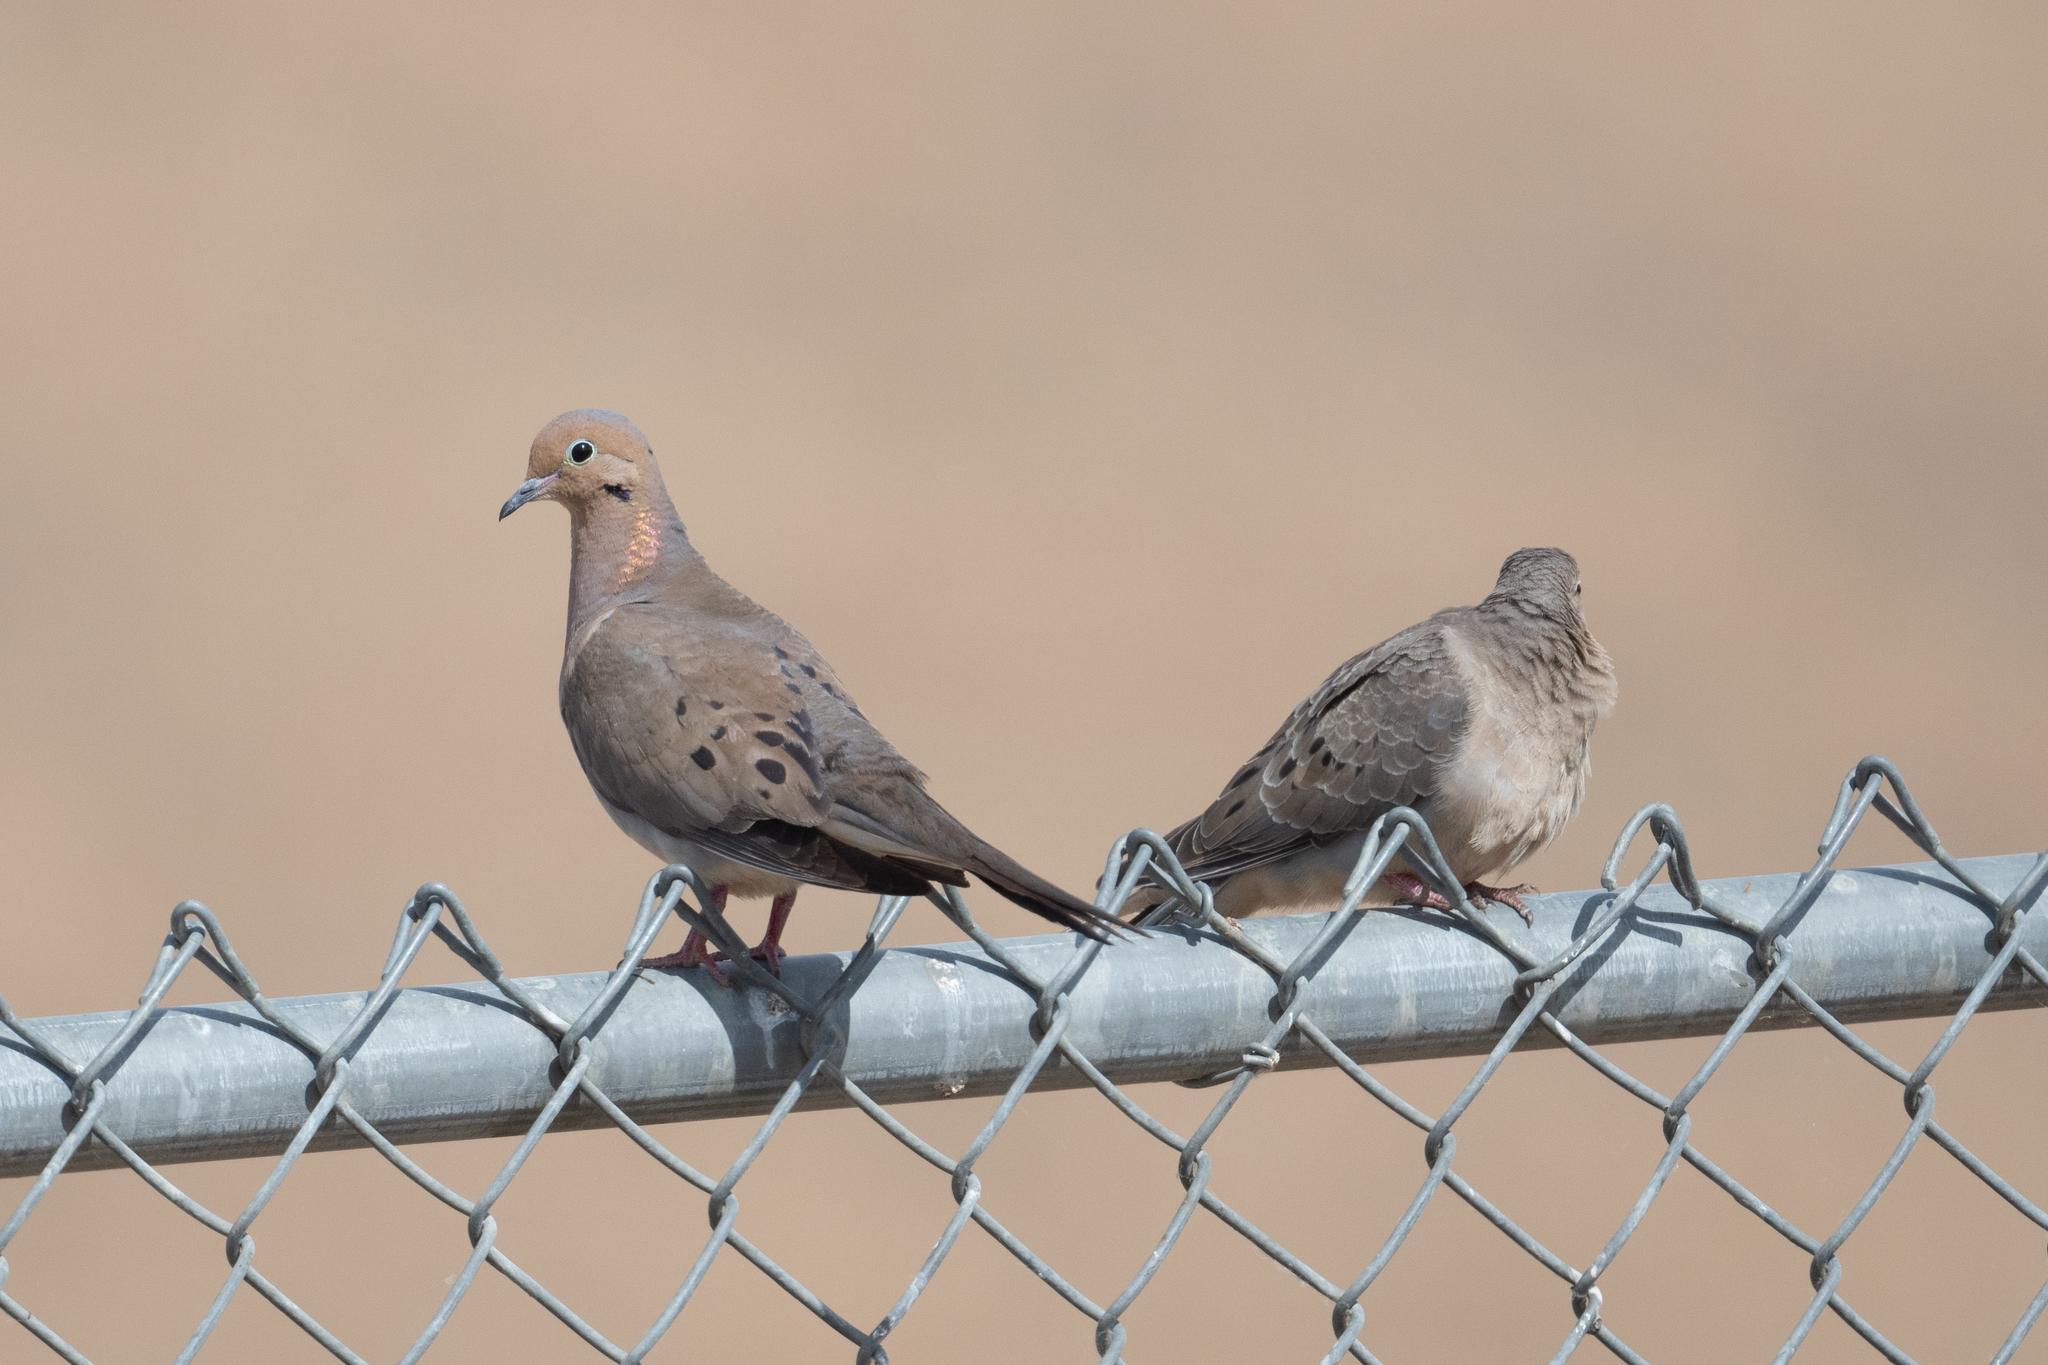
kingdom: Animalia
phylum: Chordata
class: Aves
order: Columbiformes
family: Columbidae
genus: Zenaida
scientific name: Zenaida macroura
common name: Mourning dove
